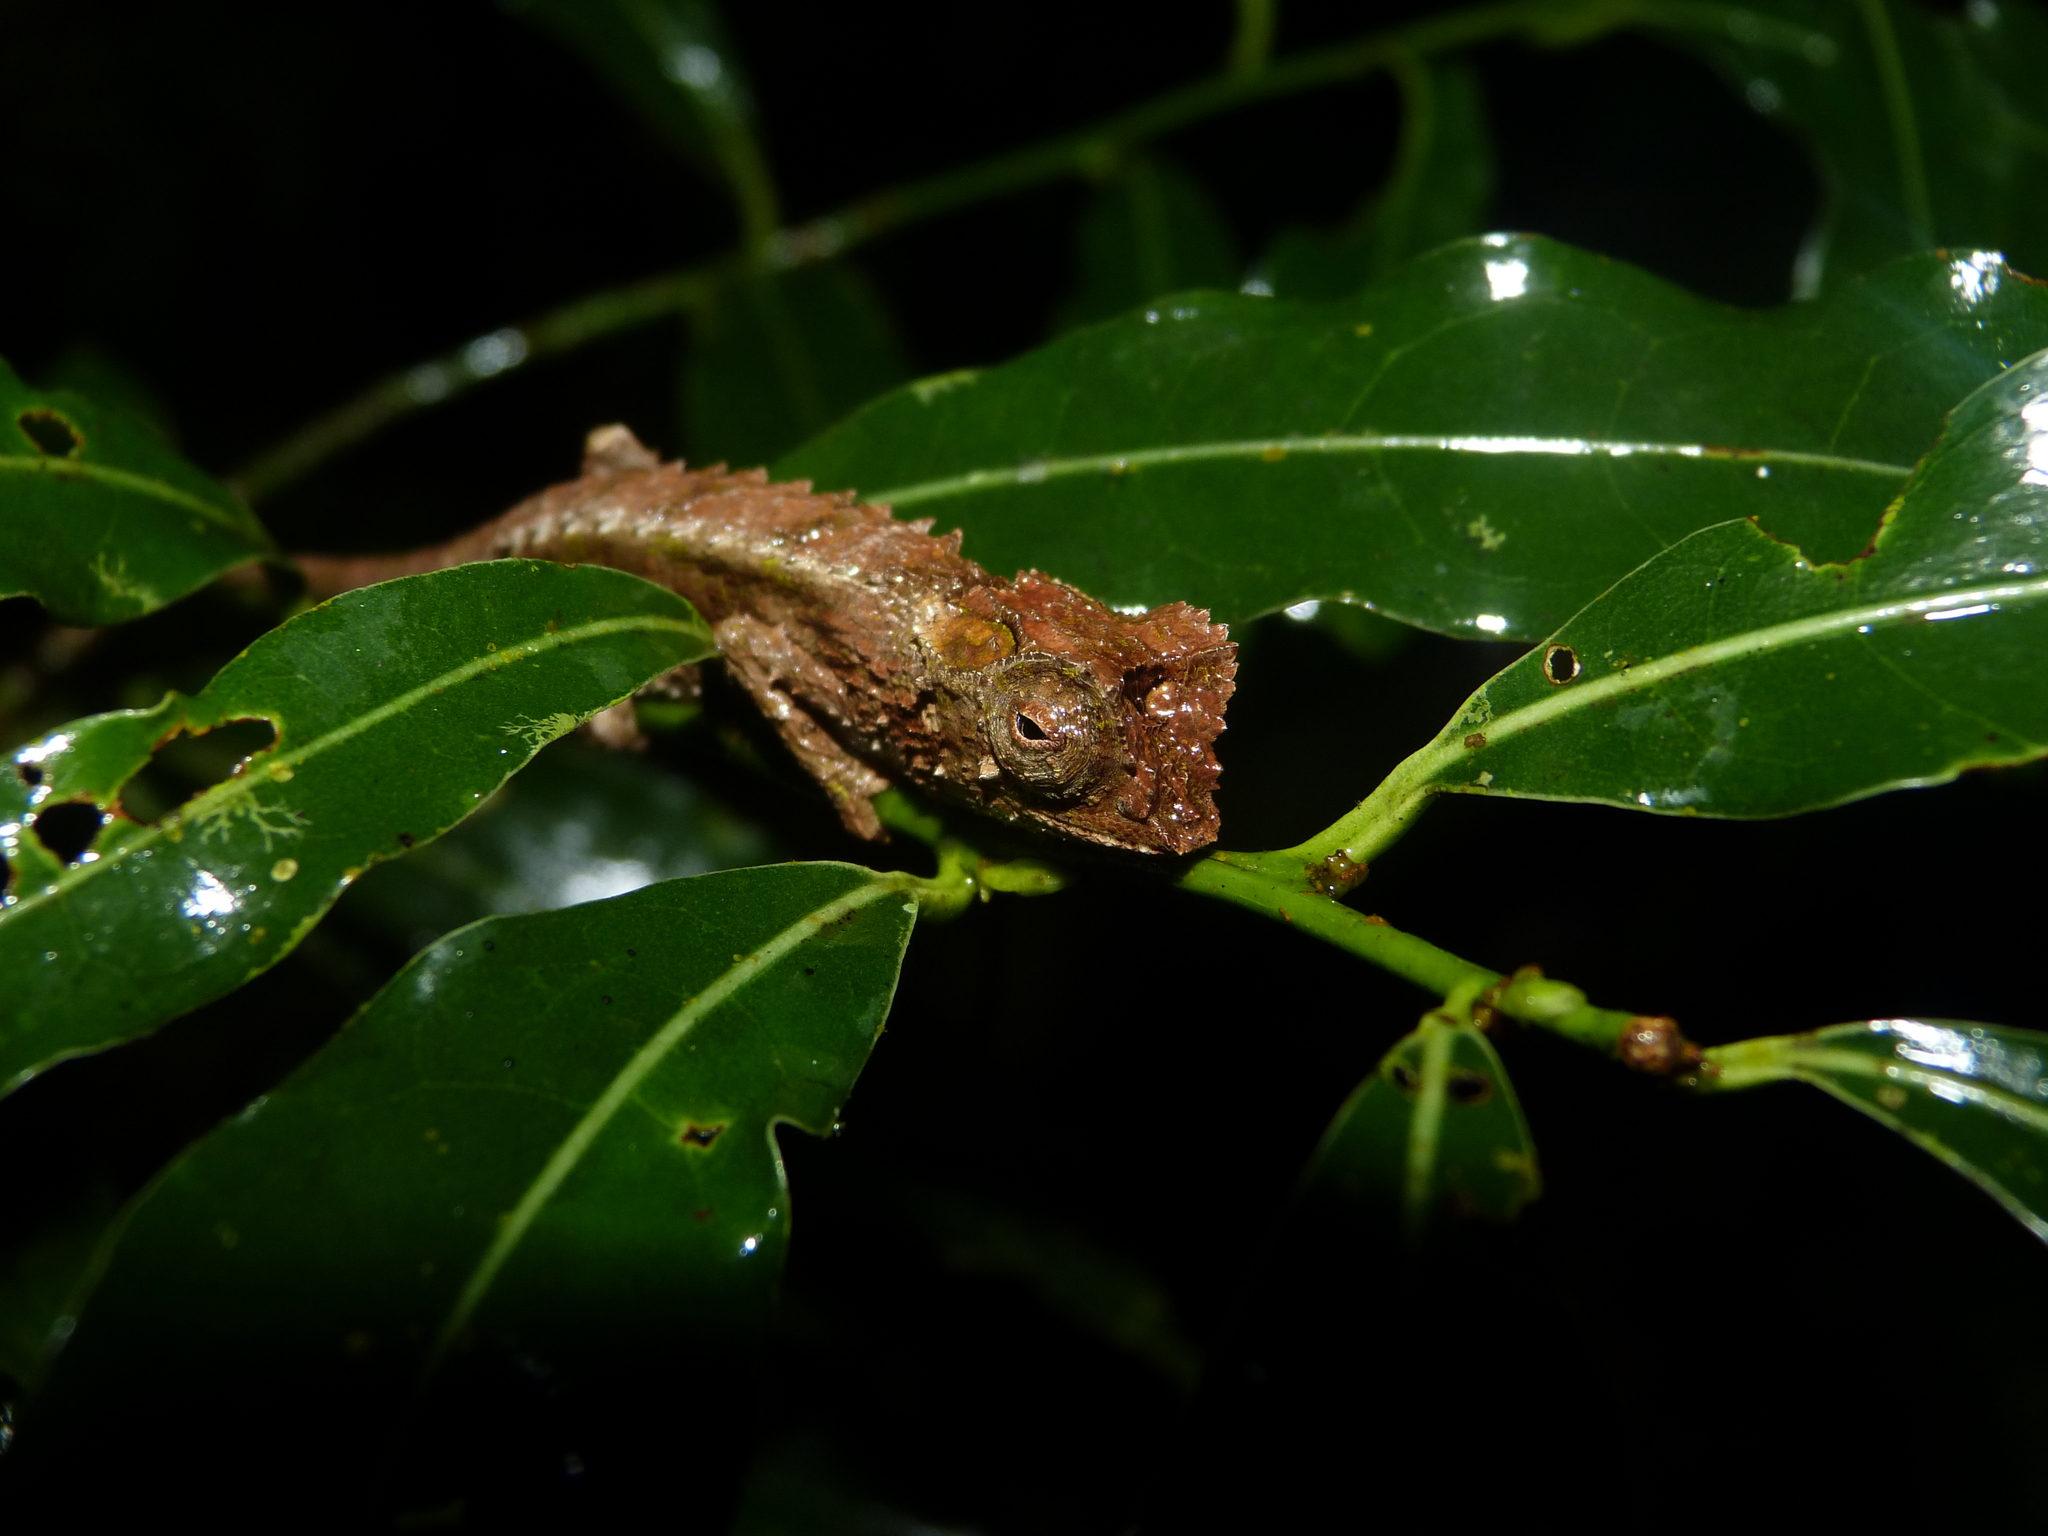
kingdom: Animalia
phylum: Chordata
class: Squamata
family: Chamaeleonidae
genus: Brookesia
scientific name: Brookesia antakarana
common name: Antakarana leaf chameleon
